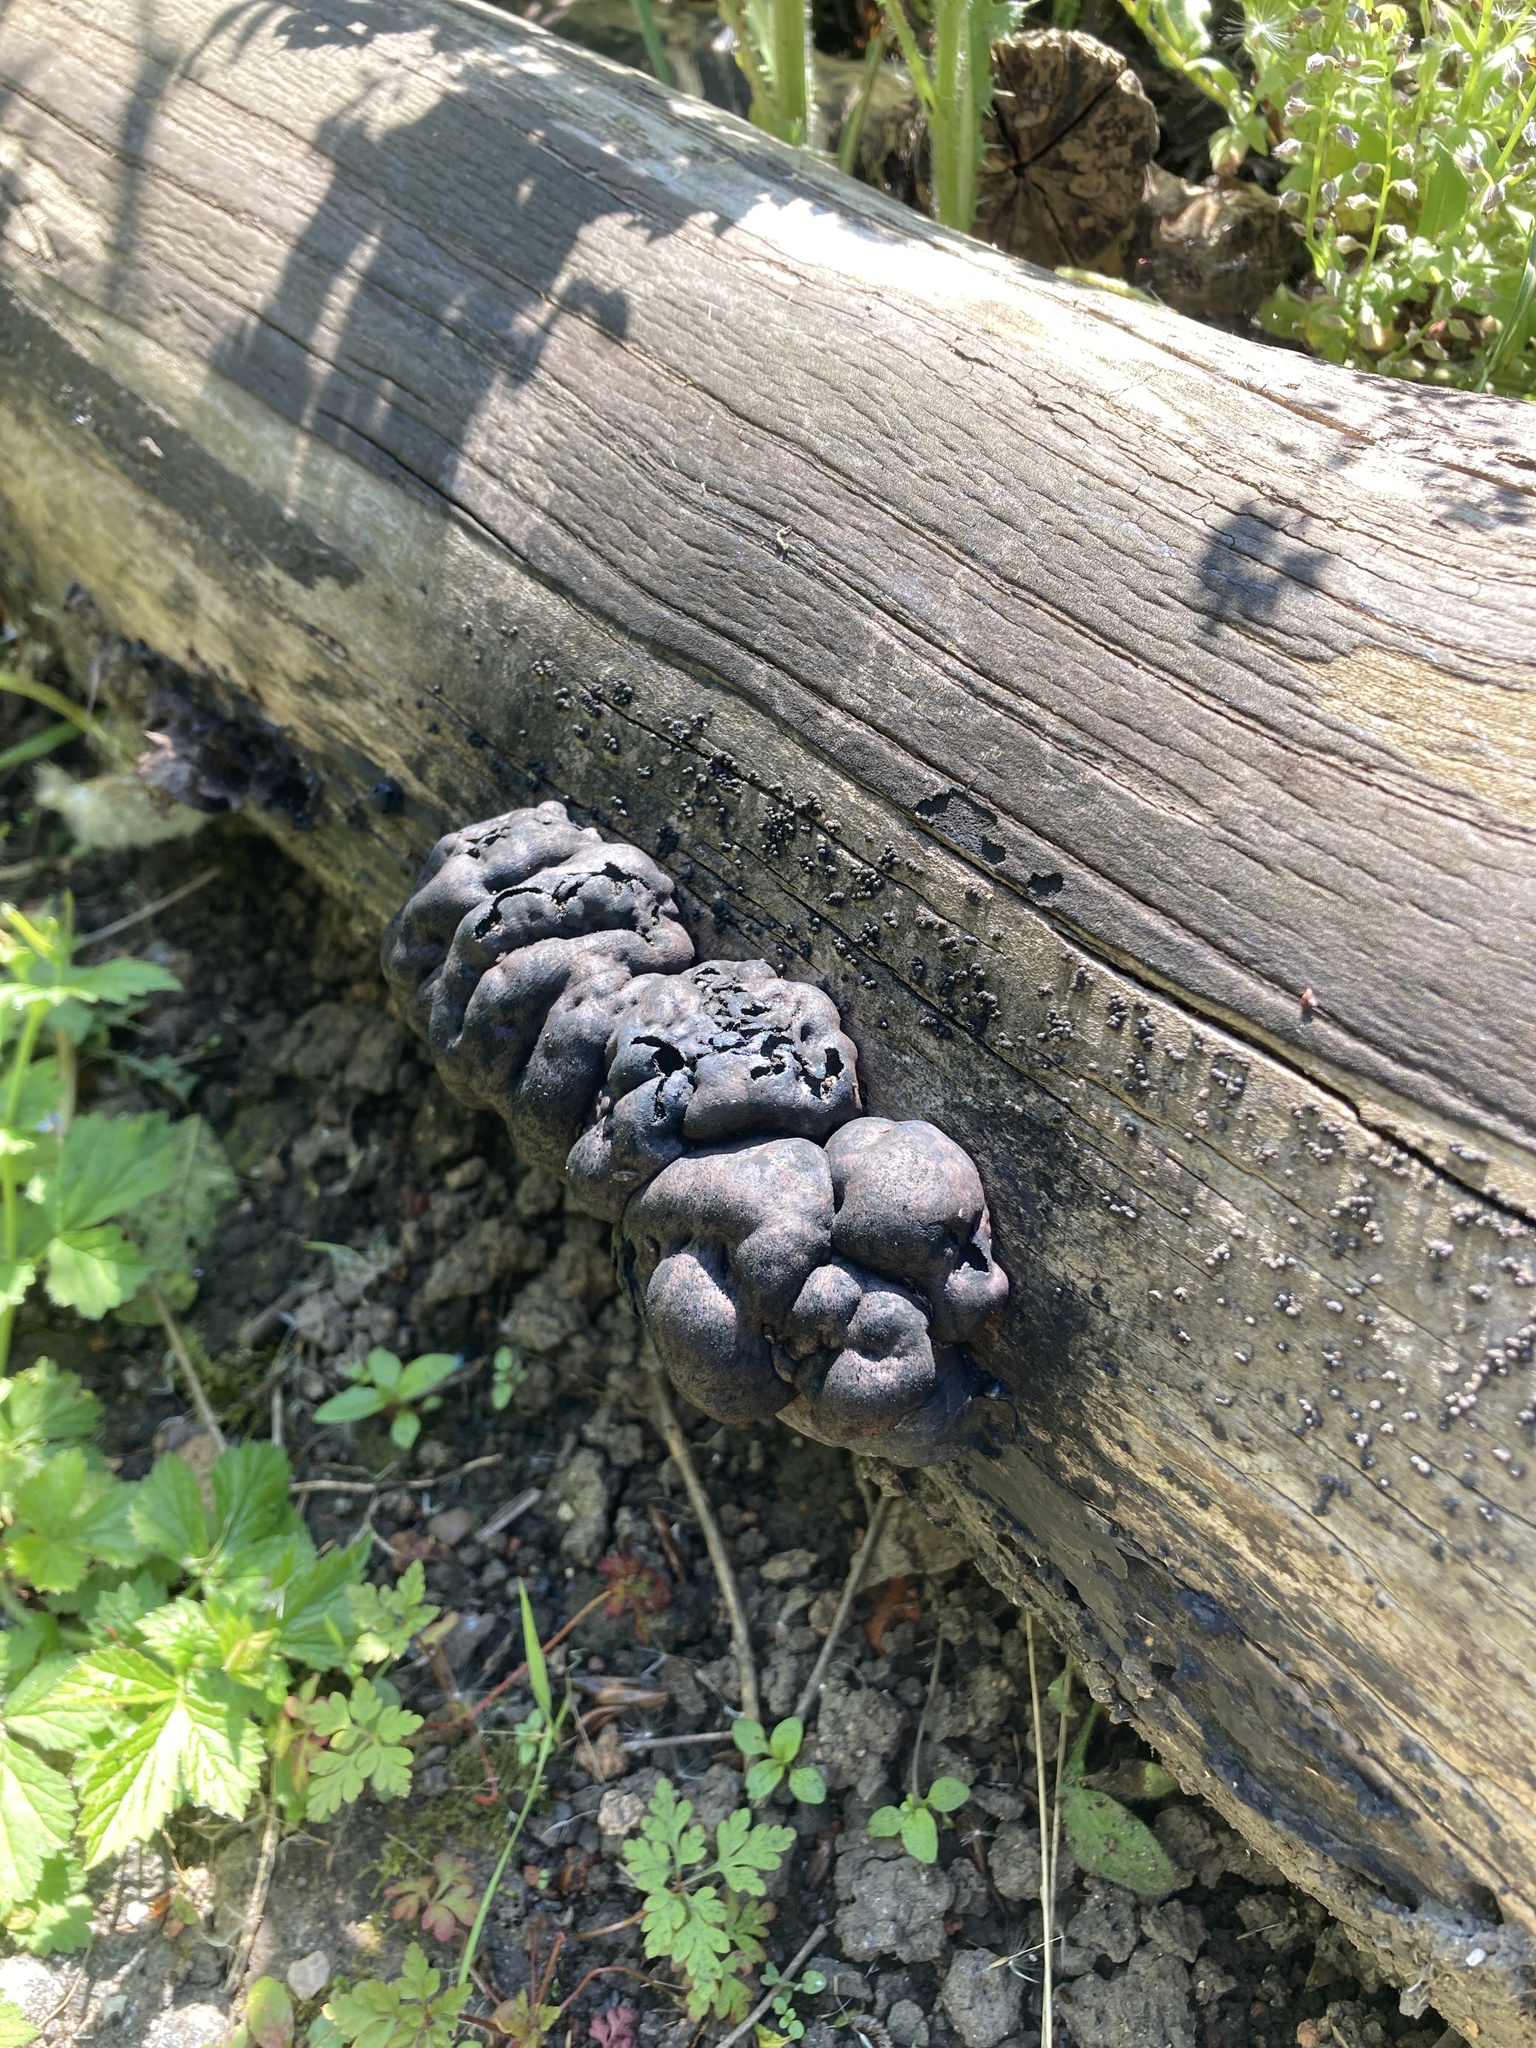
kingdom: Fungi
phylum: Ascomycota
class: Sordariomycetes
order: Xylariales
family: Hypoxylaceae
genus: Daldinia
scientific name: Daldinia concentrica
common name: Cramp balls
